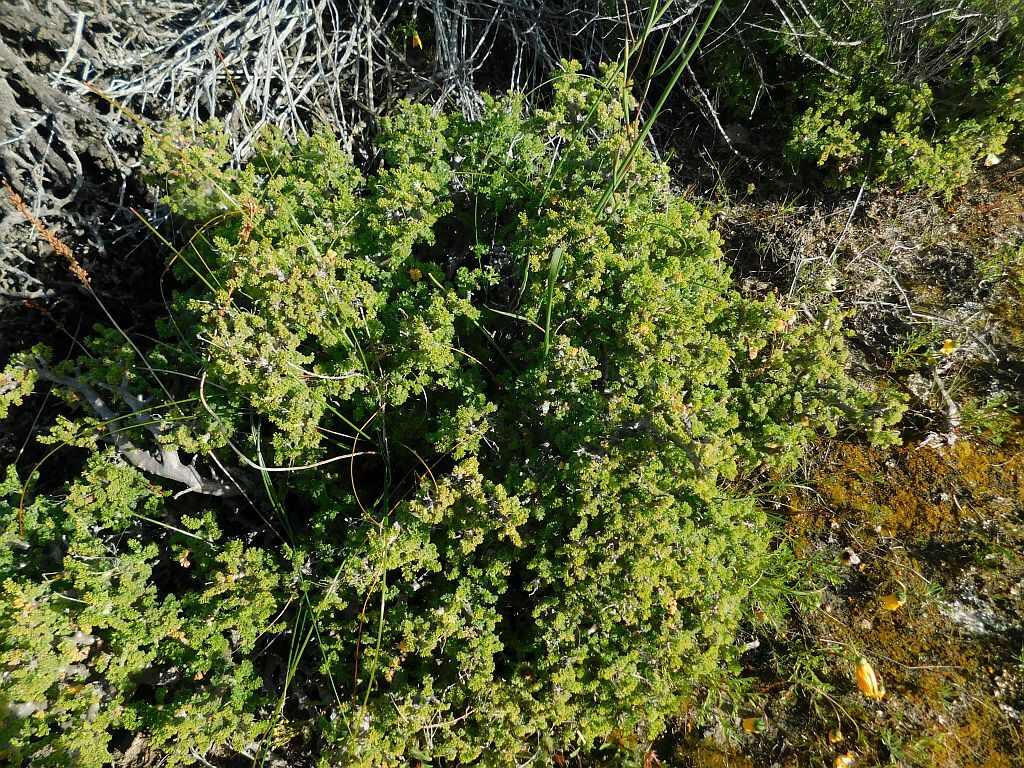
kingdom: Plantae
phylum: Tracheophyta
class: Magnoliopsida
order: Geraniales
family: Geraniaceae
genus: Pelargonium
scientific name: Pelargonium alternans
